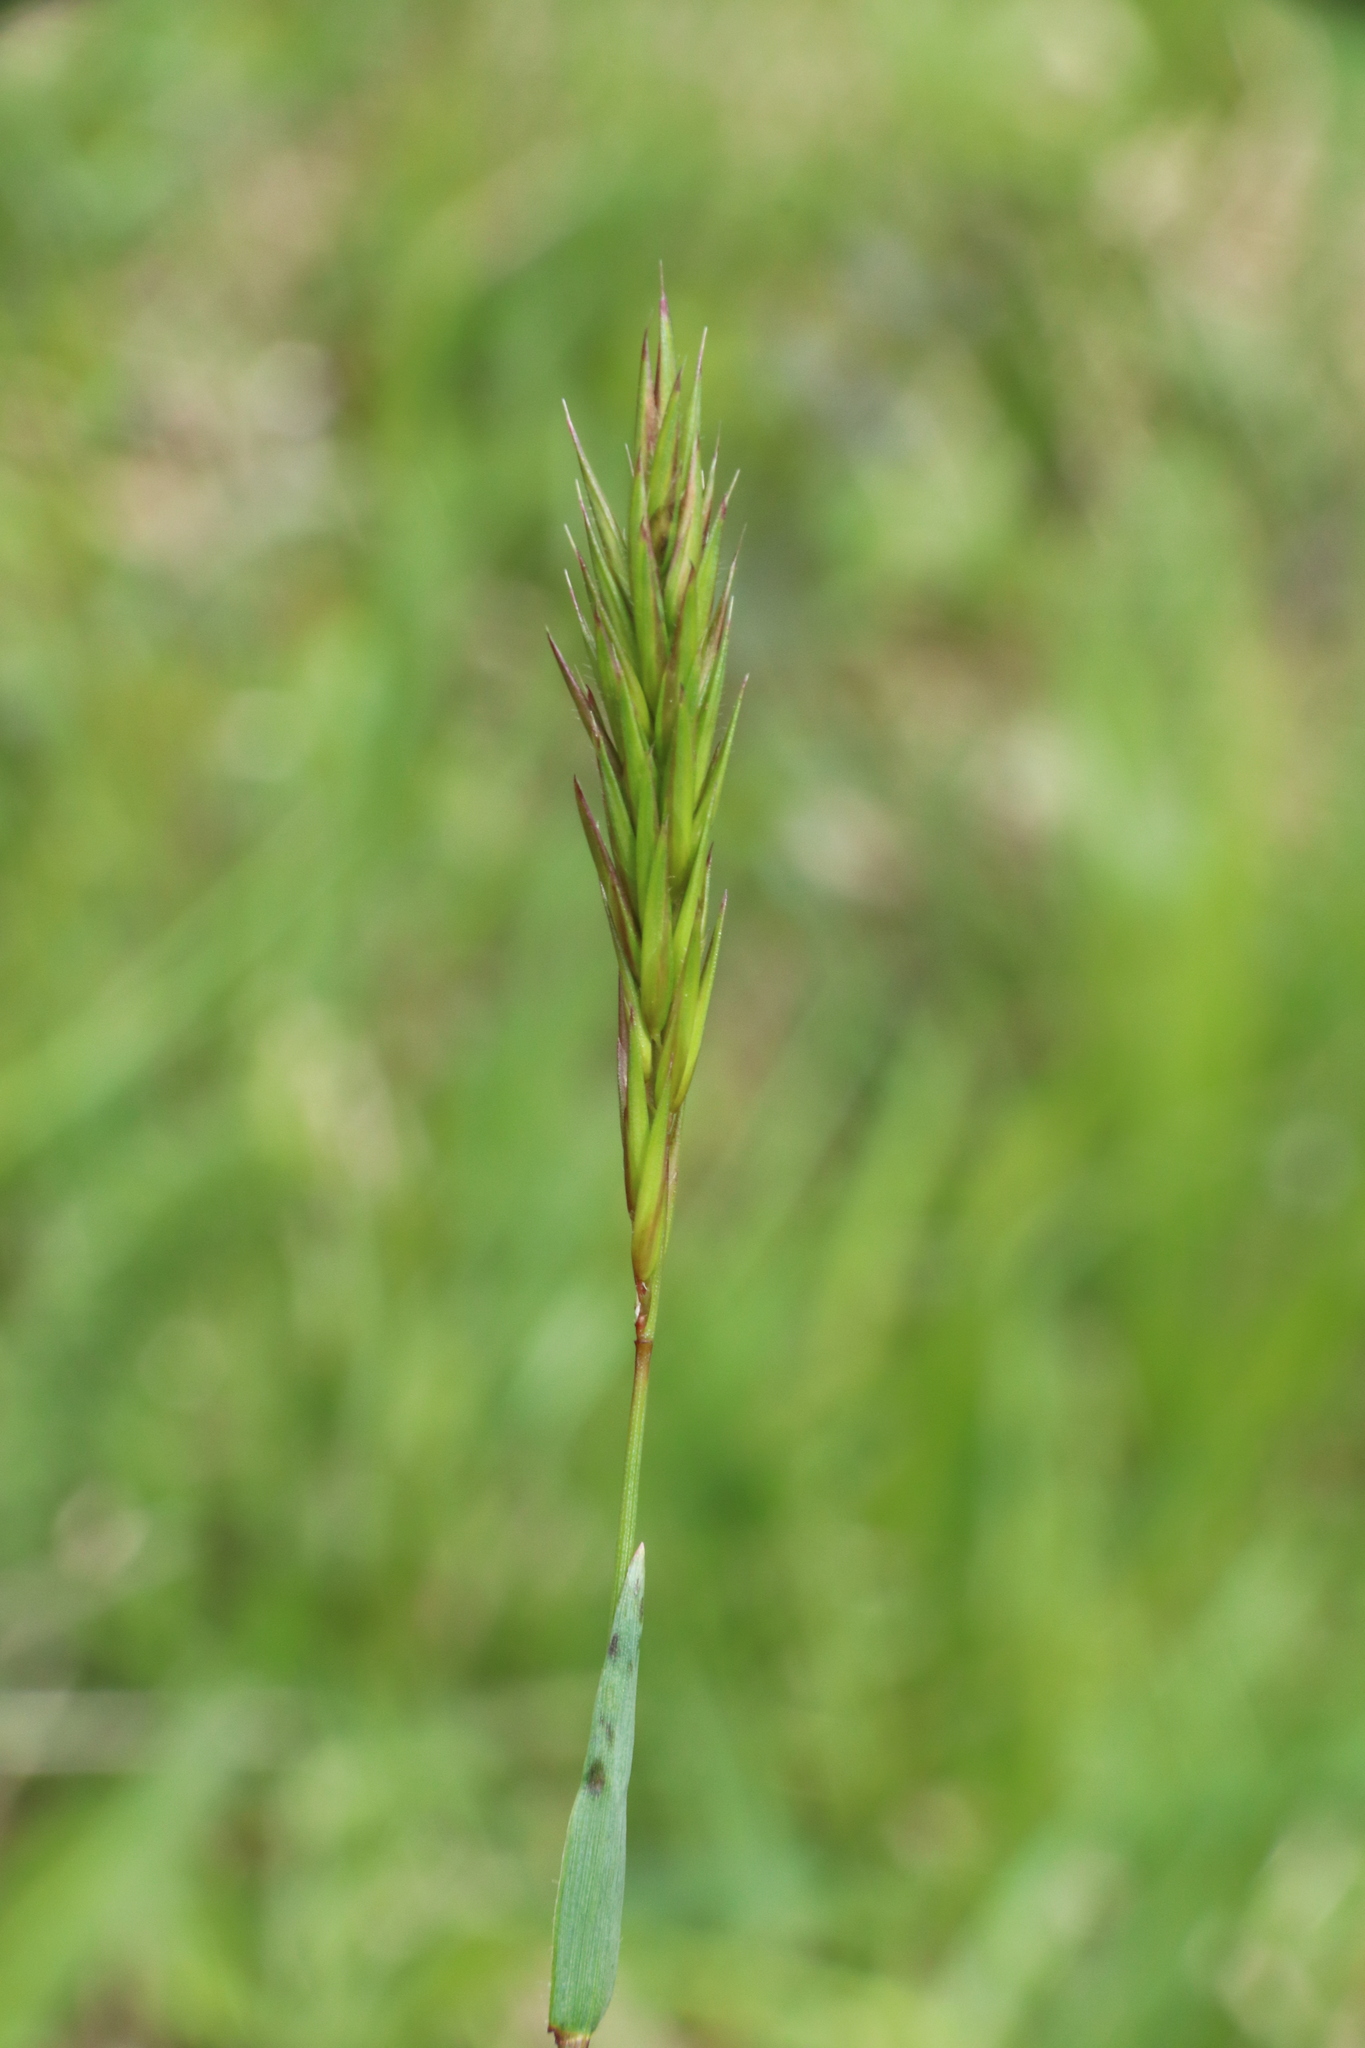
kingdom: Plantae
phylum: Tracheophyta
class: Liliopsida
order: Poales
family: Poaceae
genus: Anthoxanthum
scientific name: Anthoxanthum odoratum
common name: Sweet vernalgrass
